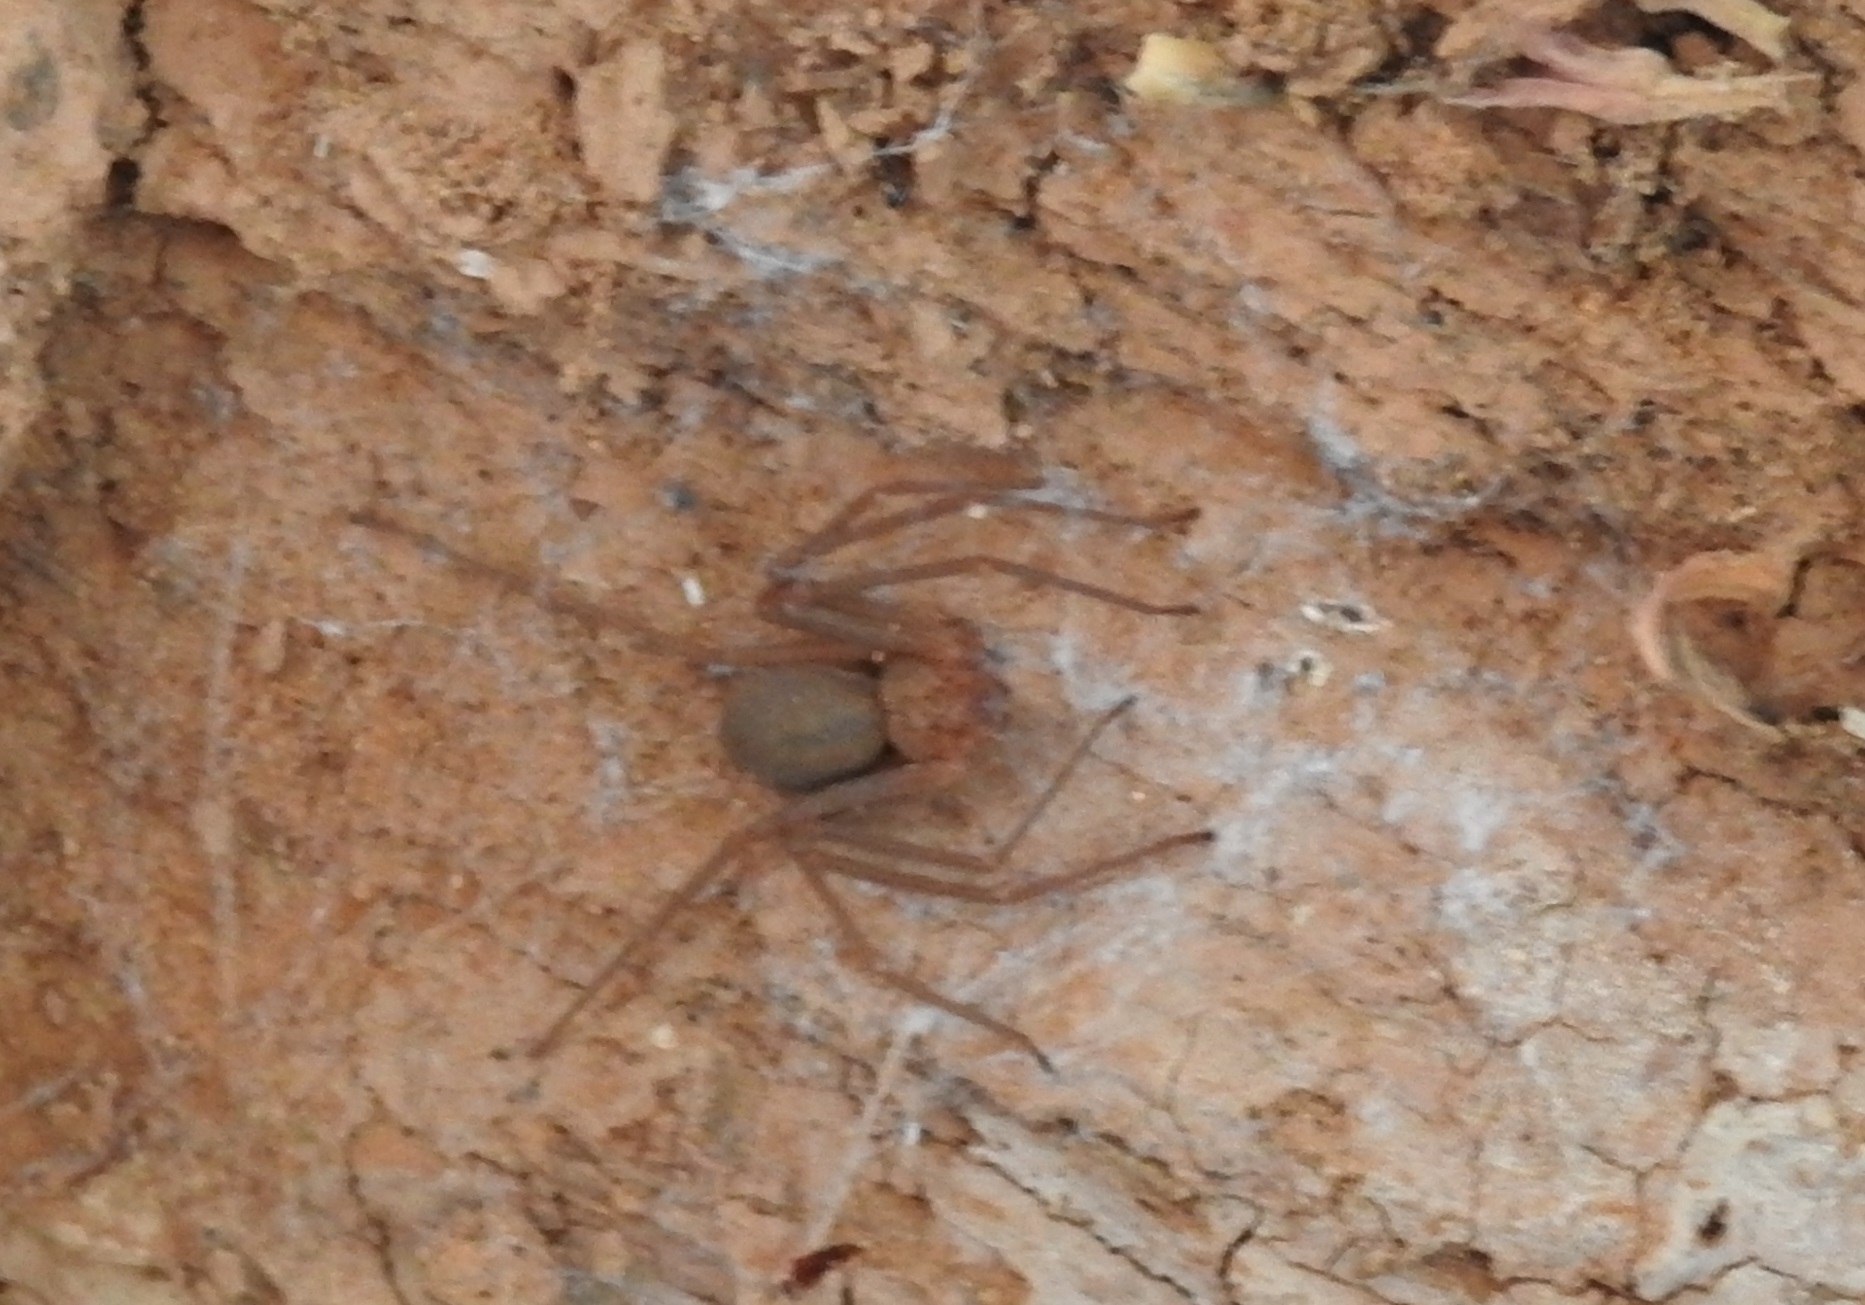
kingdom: Animalia
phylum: Arthropoda
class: Arachnida
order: Araneae
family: Sicariidae
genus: Loxosceles
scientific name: Loxosceles rufescens
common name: Mediterranean recluse spider
